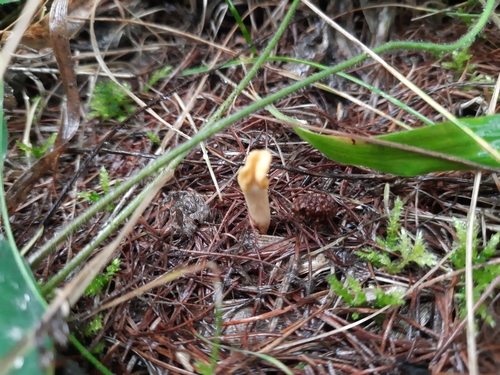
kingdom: Fungi
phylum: Ascomycota
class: Leotiomycetes
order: Rhytismatales
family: Cudoniaceae
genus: Spathularia
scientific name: Spathularia flavida
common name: Yellow fan
